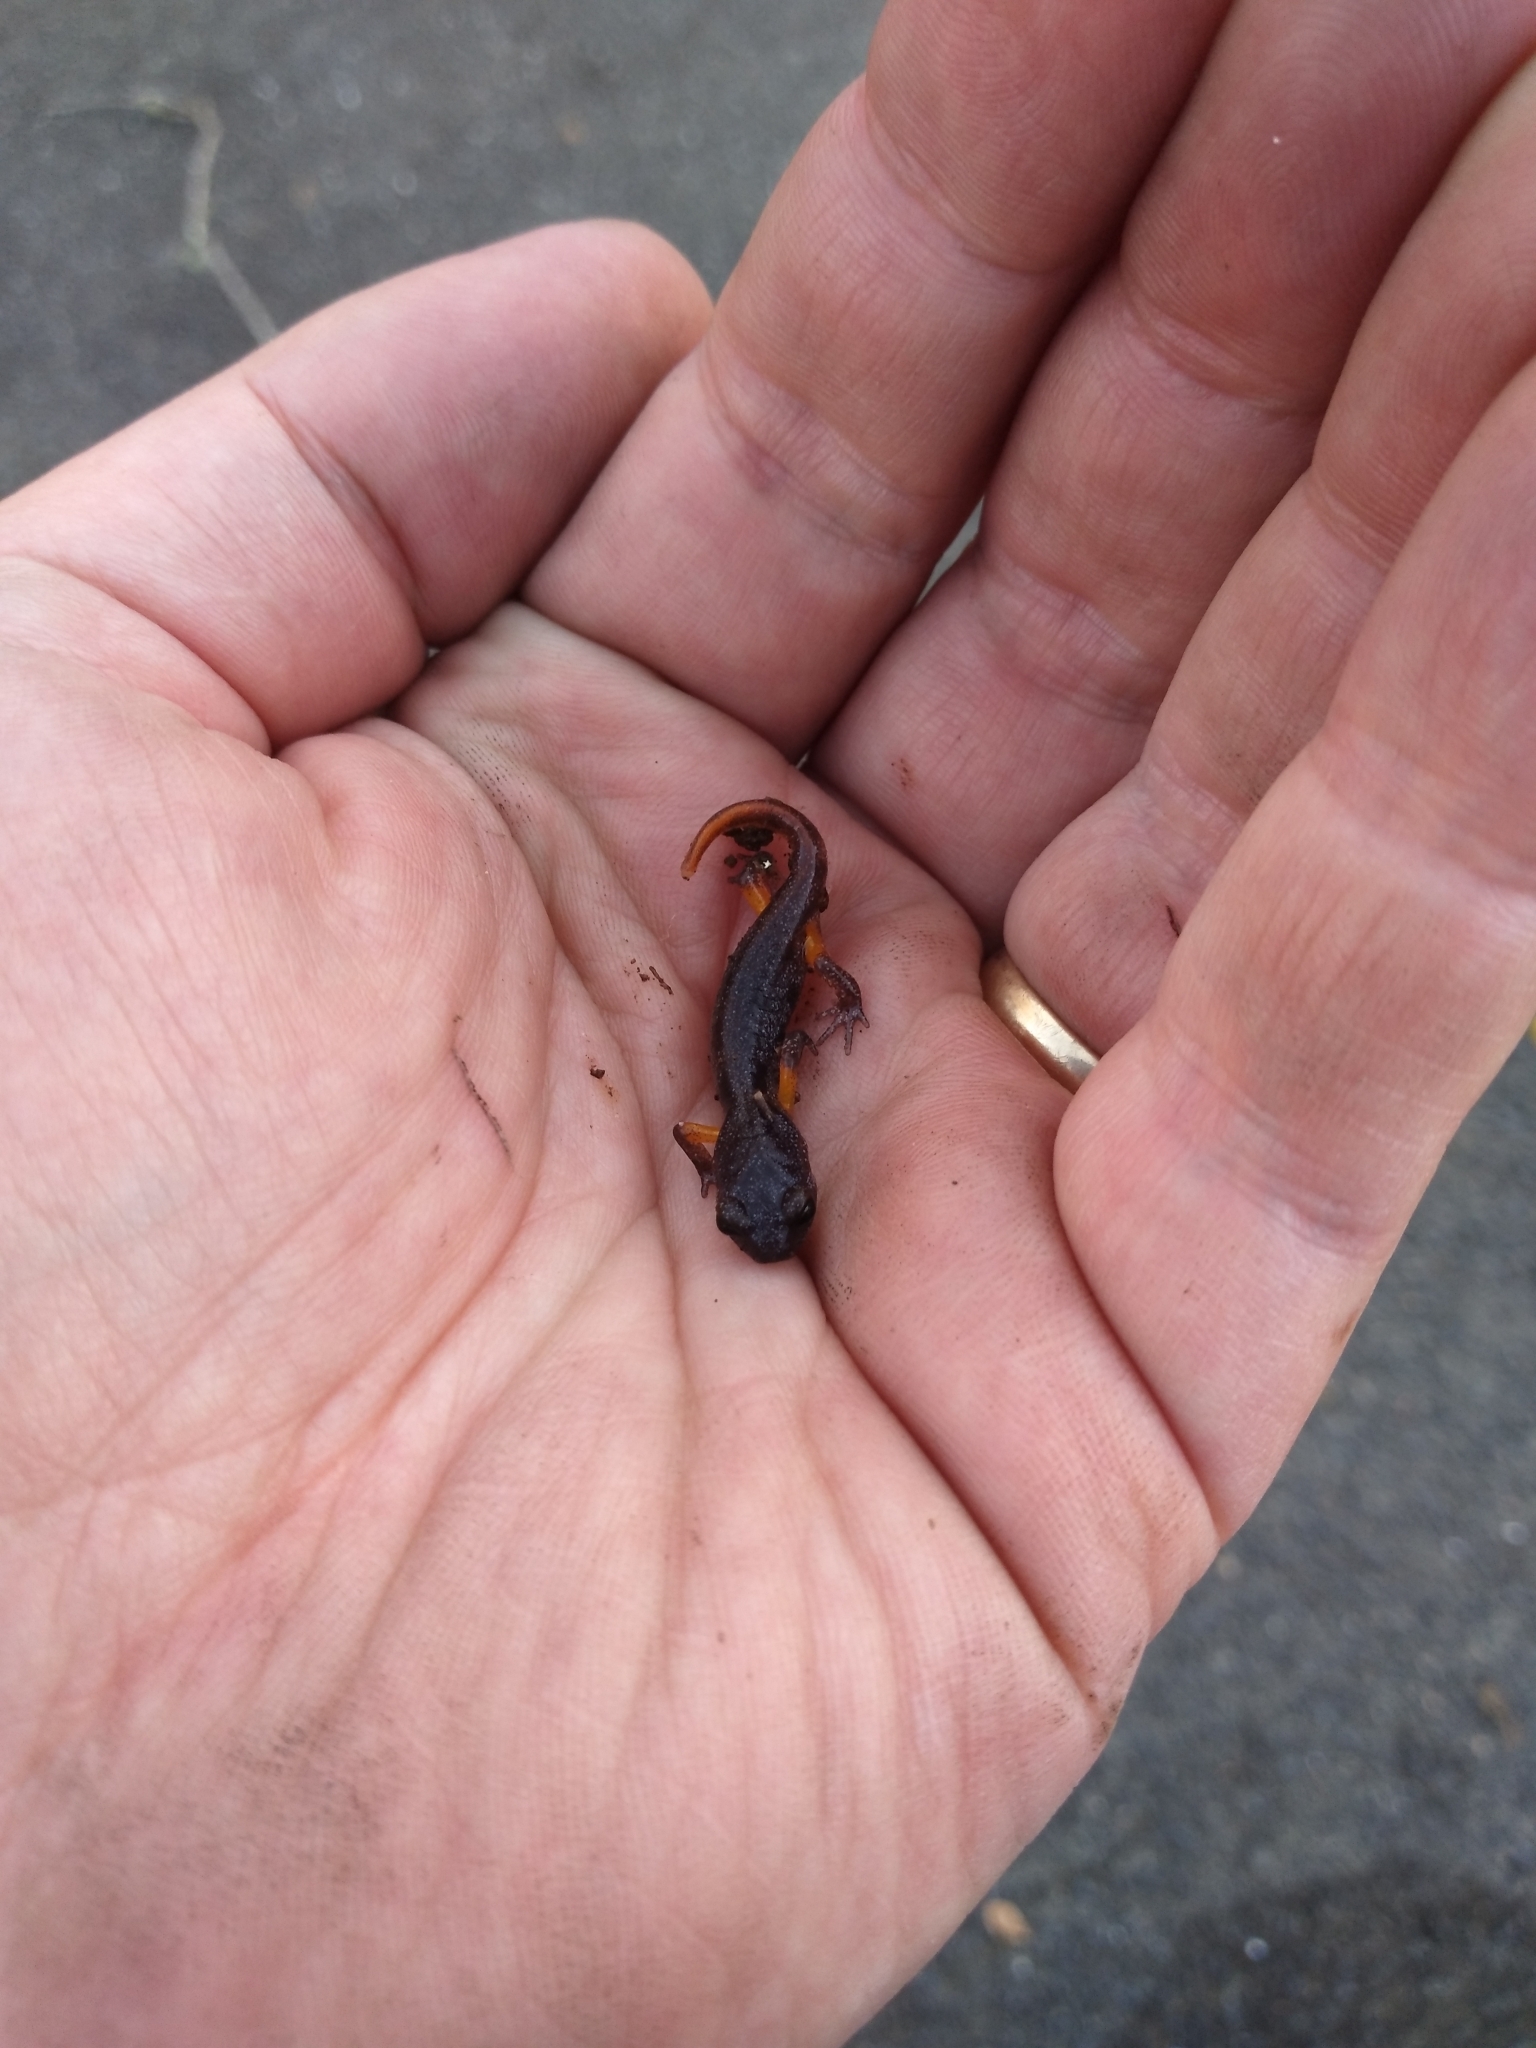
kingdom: Animalia
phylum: Chordata
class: Amphibia
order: Caudata
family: Plethodontidae
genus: Ensatina
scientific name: Ensatina eschscholtzii
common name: Ensatina
